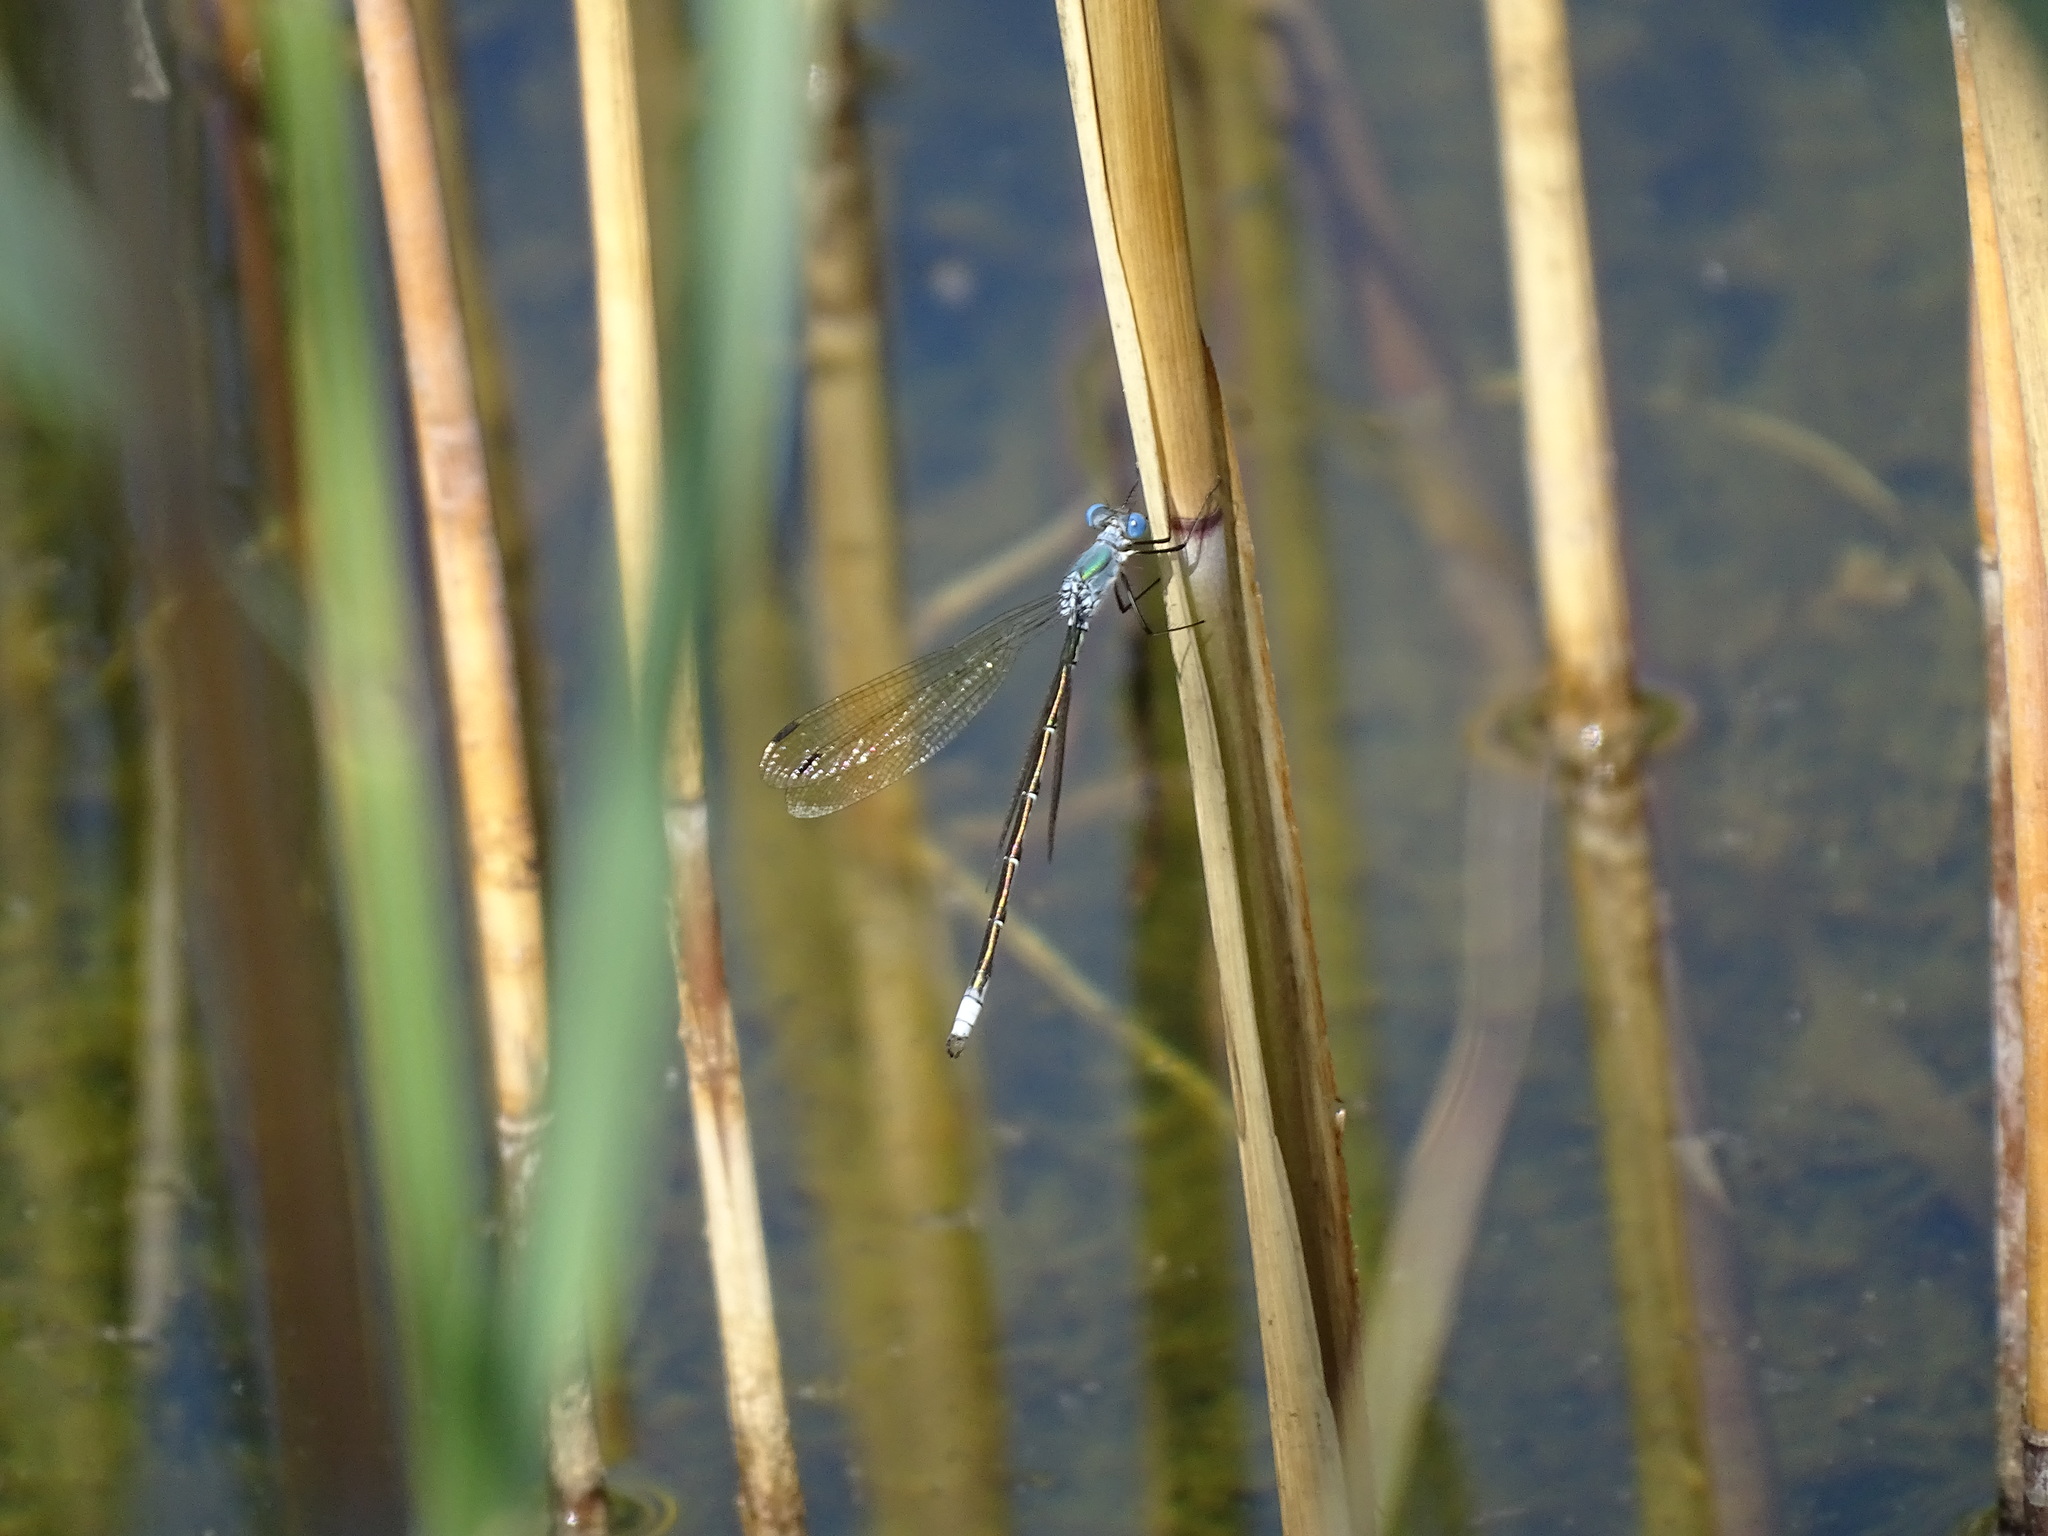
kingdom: Animalia
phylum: Arthropoda
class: Insecta
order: Odonata
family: Lestidae
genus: Lestes
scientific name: Lestes eurinus
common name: Amber-winged spreadwing
